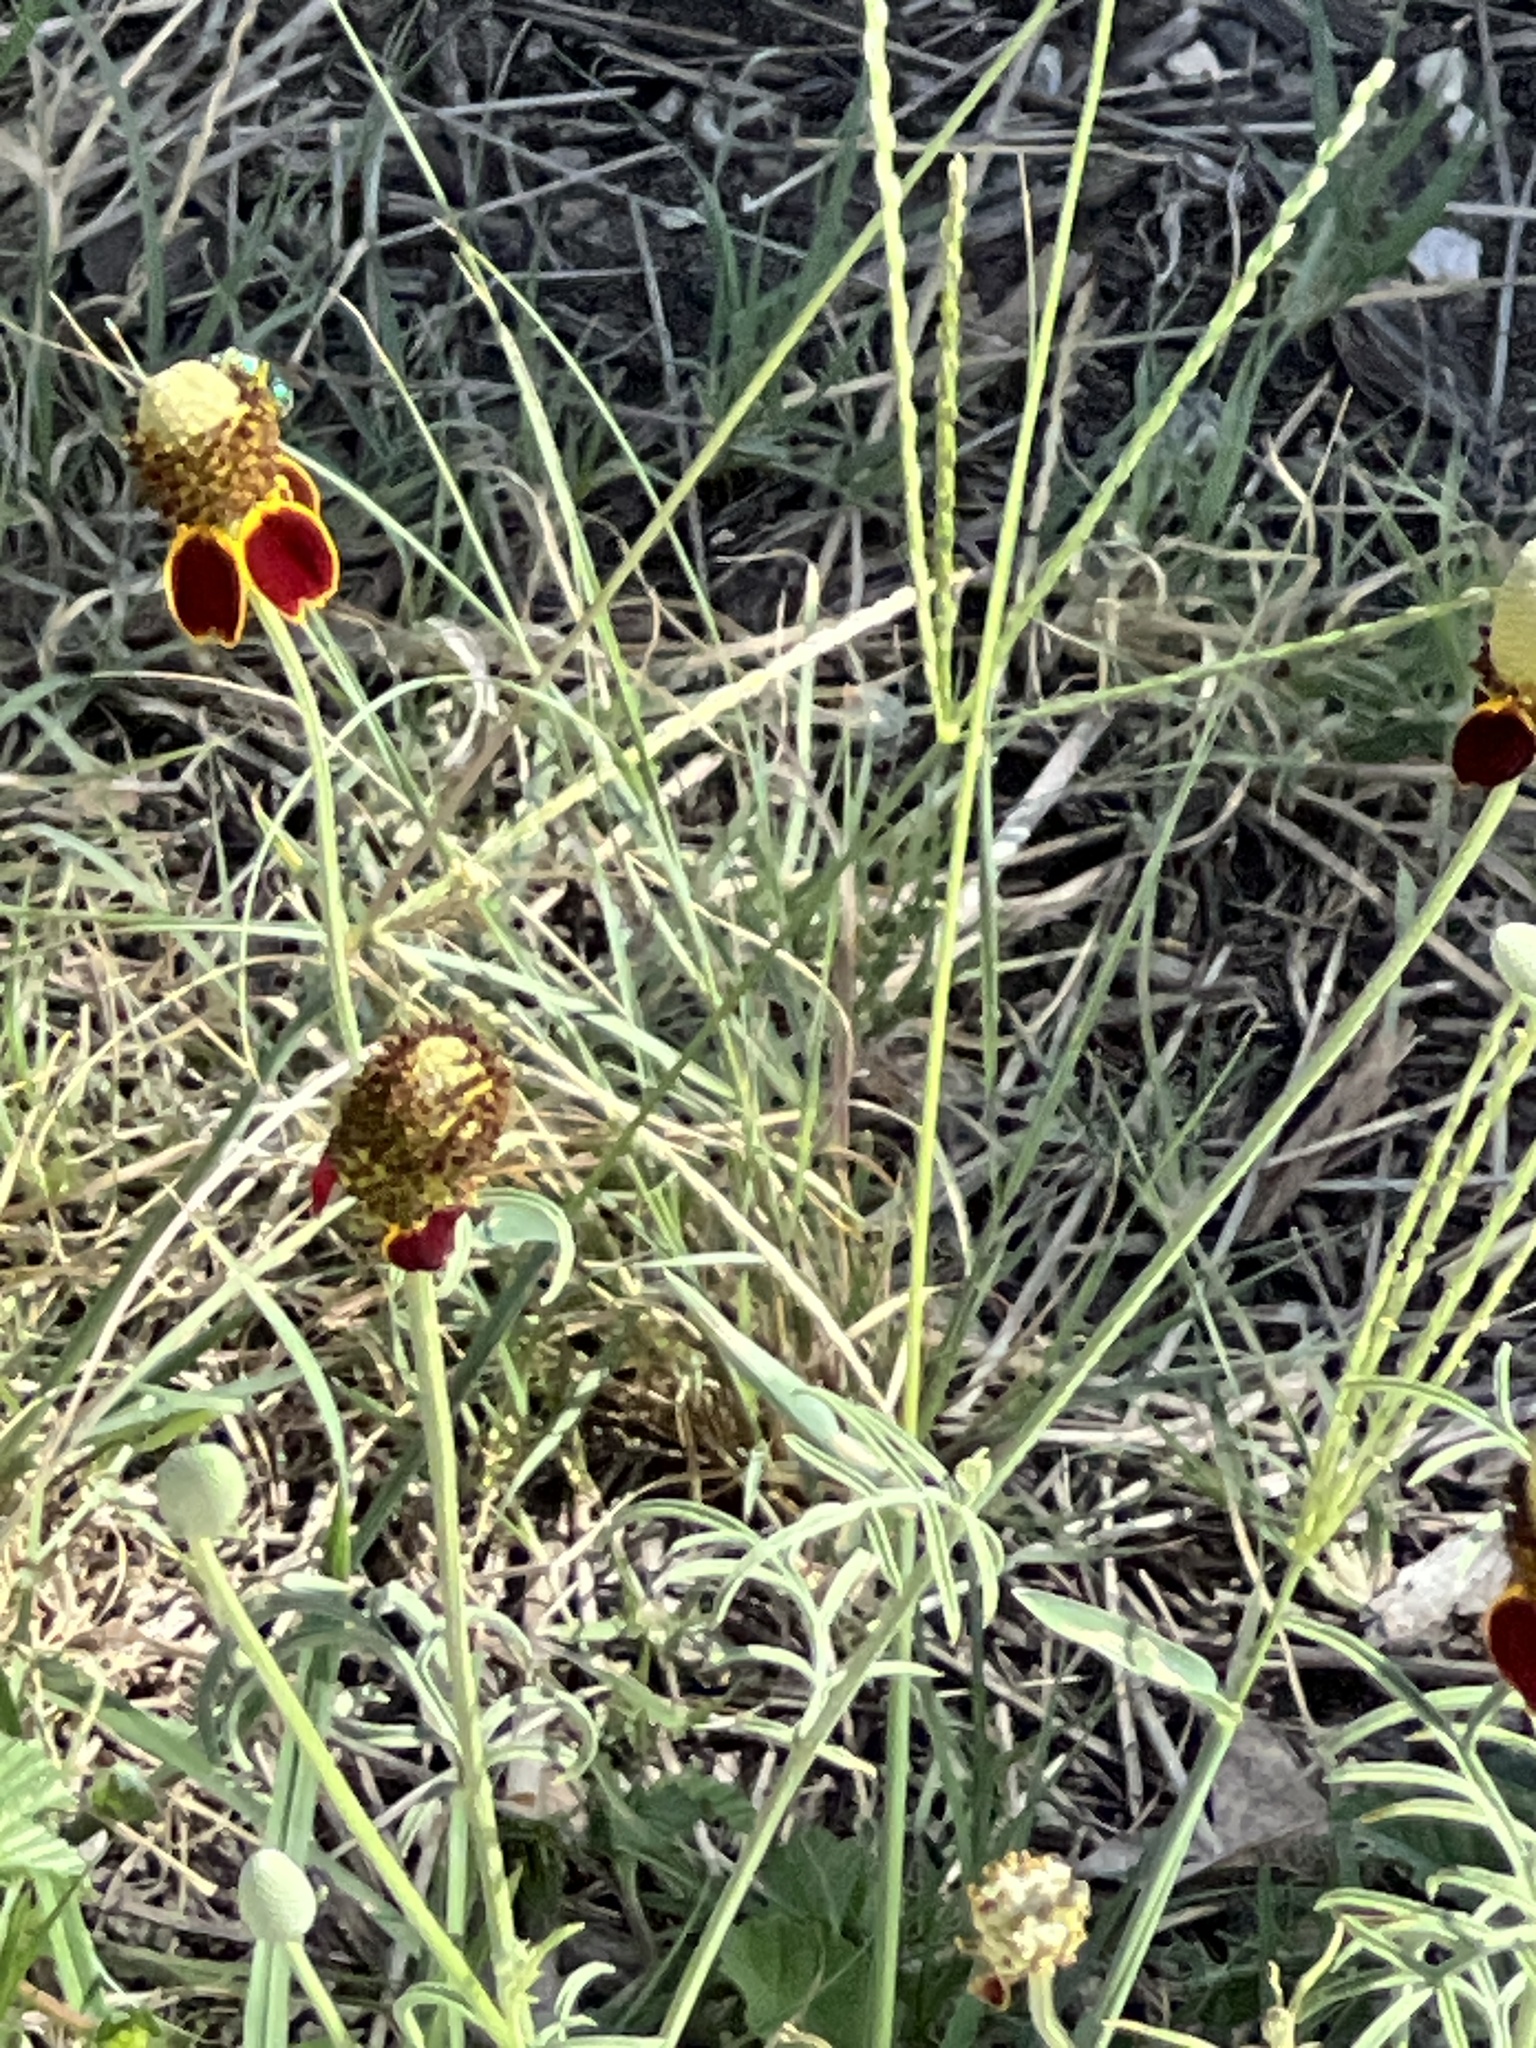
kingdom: Plantae
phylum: Tracheophyta
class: Magnoliopsida
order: Asterales
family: Asteraceae
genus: Ratibida
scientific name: Ratibida columnifera
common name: Prairie coneflower
